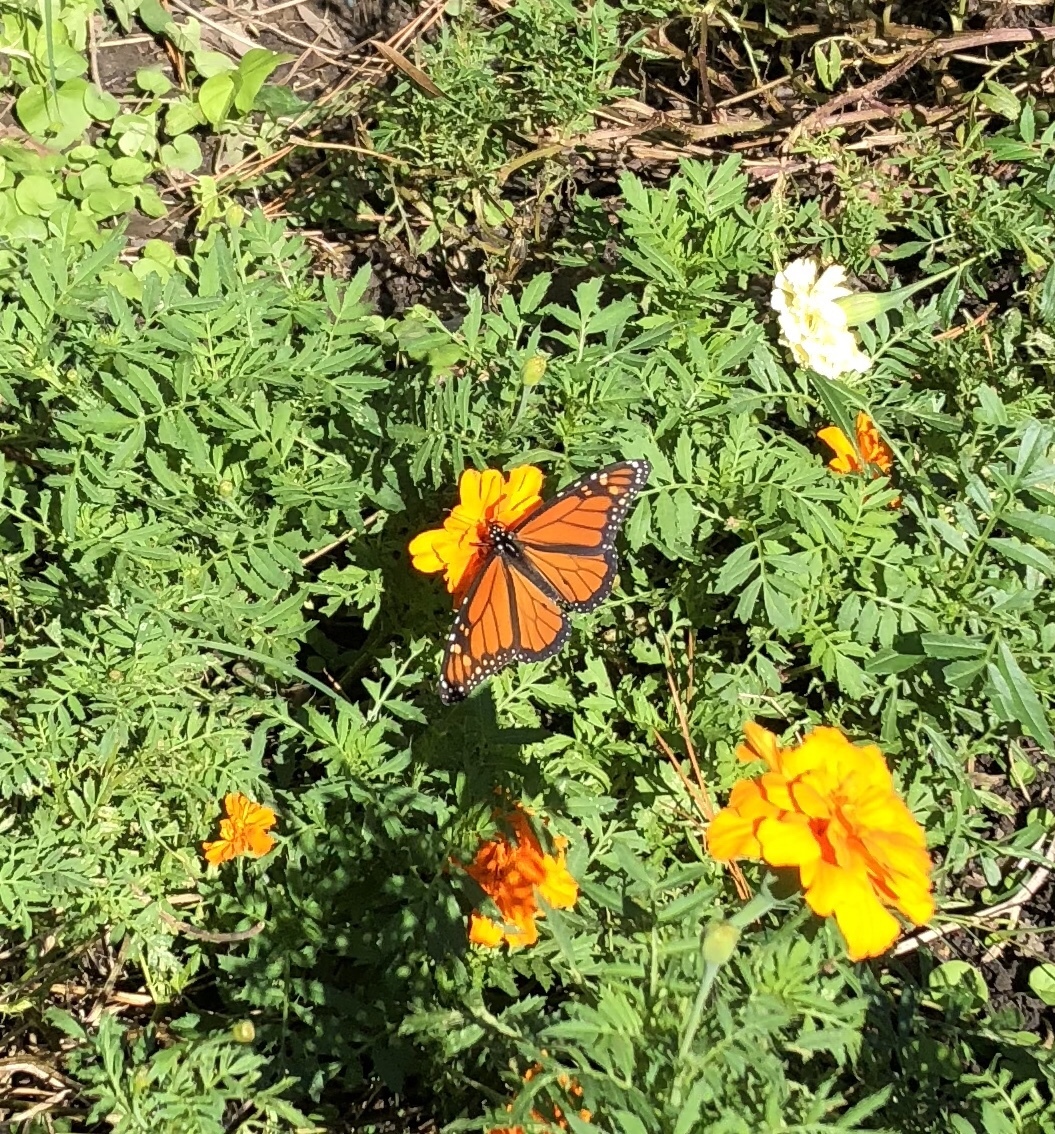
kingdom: Animalia
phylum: Arthropoda
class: Insecta
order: Lepidoptera
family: Nymphalidae
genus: Danaus
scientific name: Danaus plexippus
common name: Monarch
